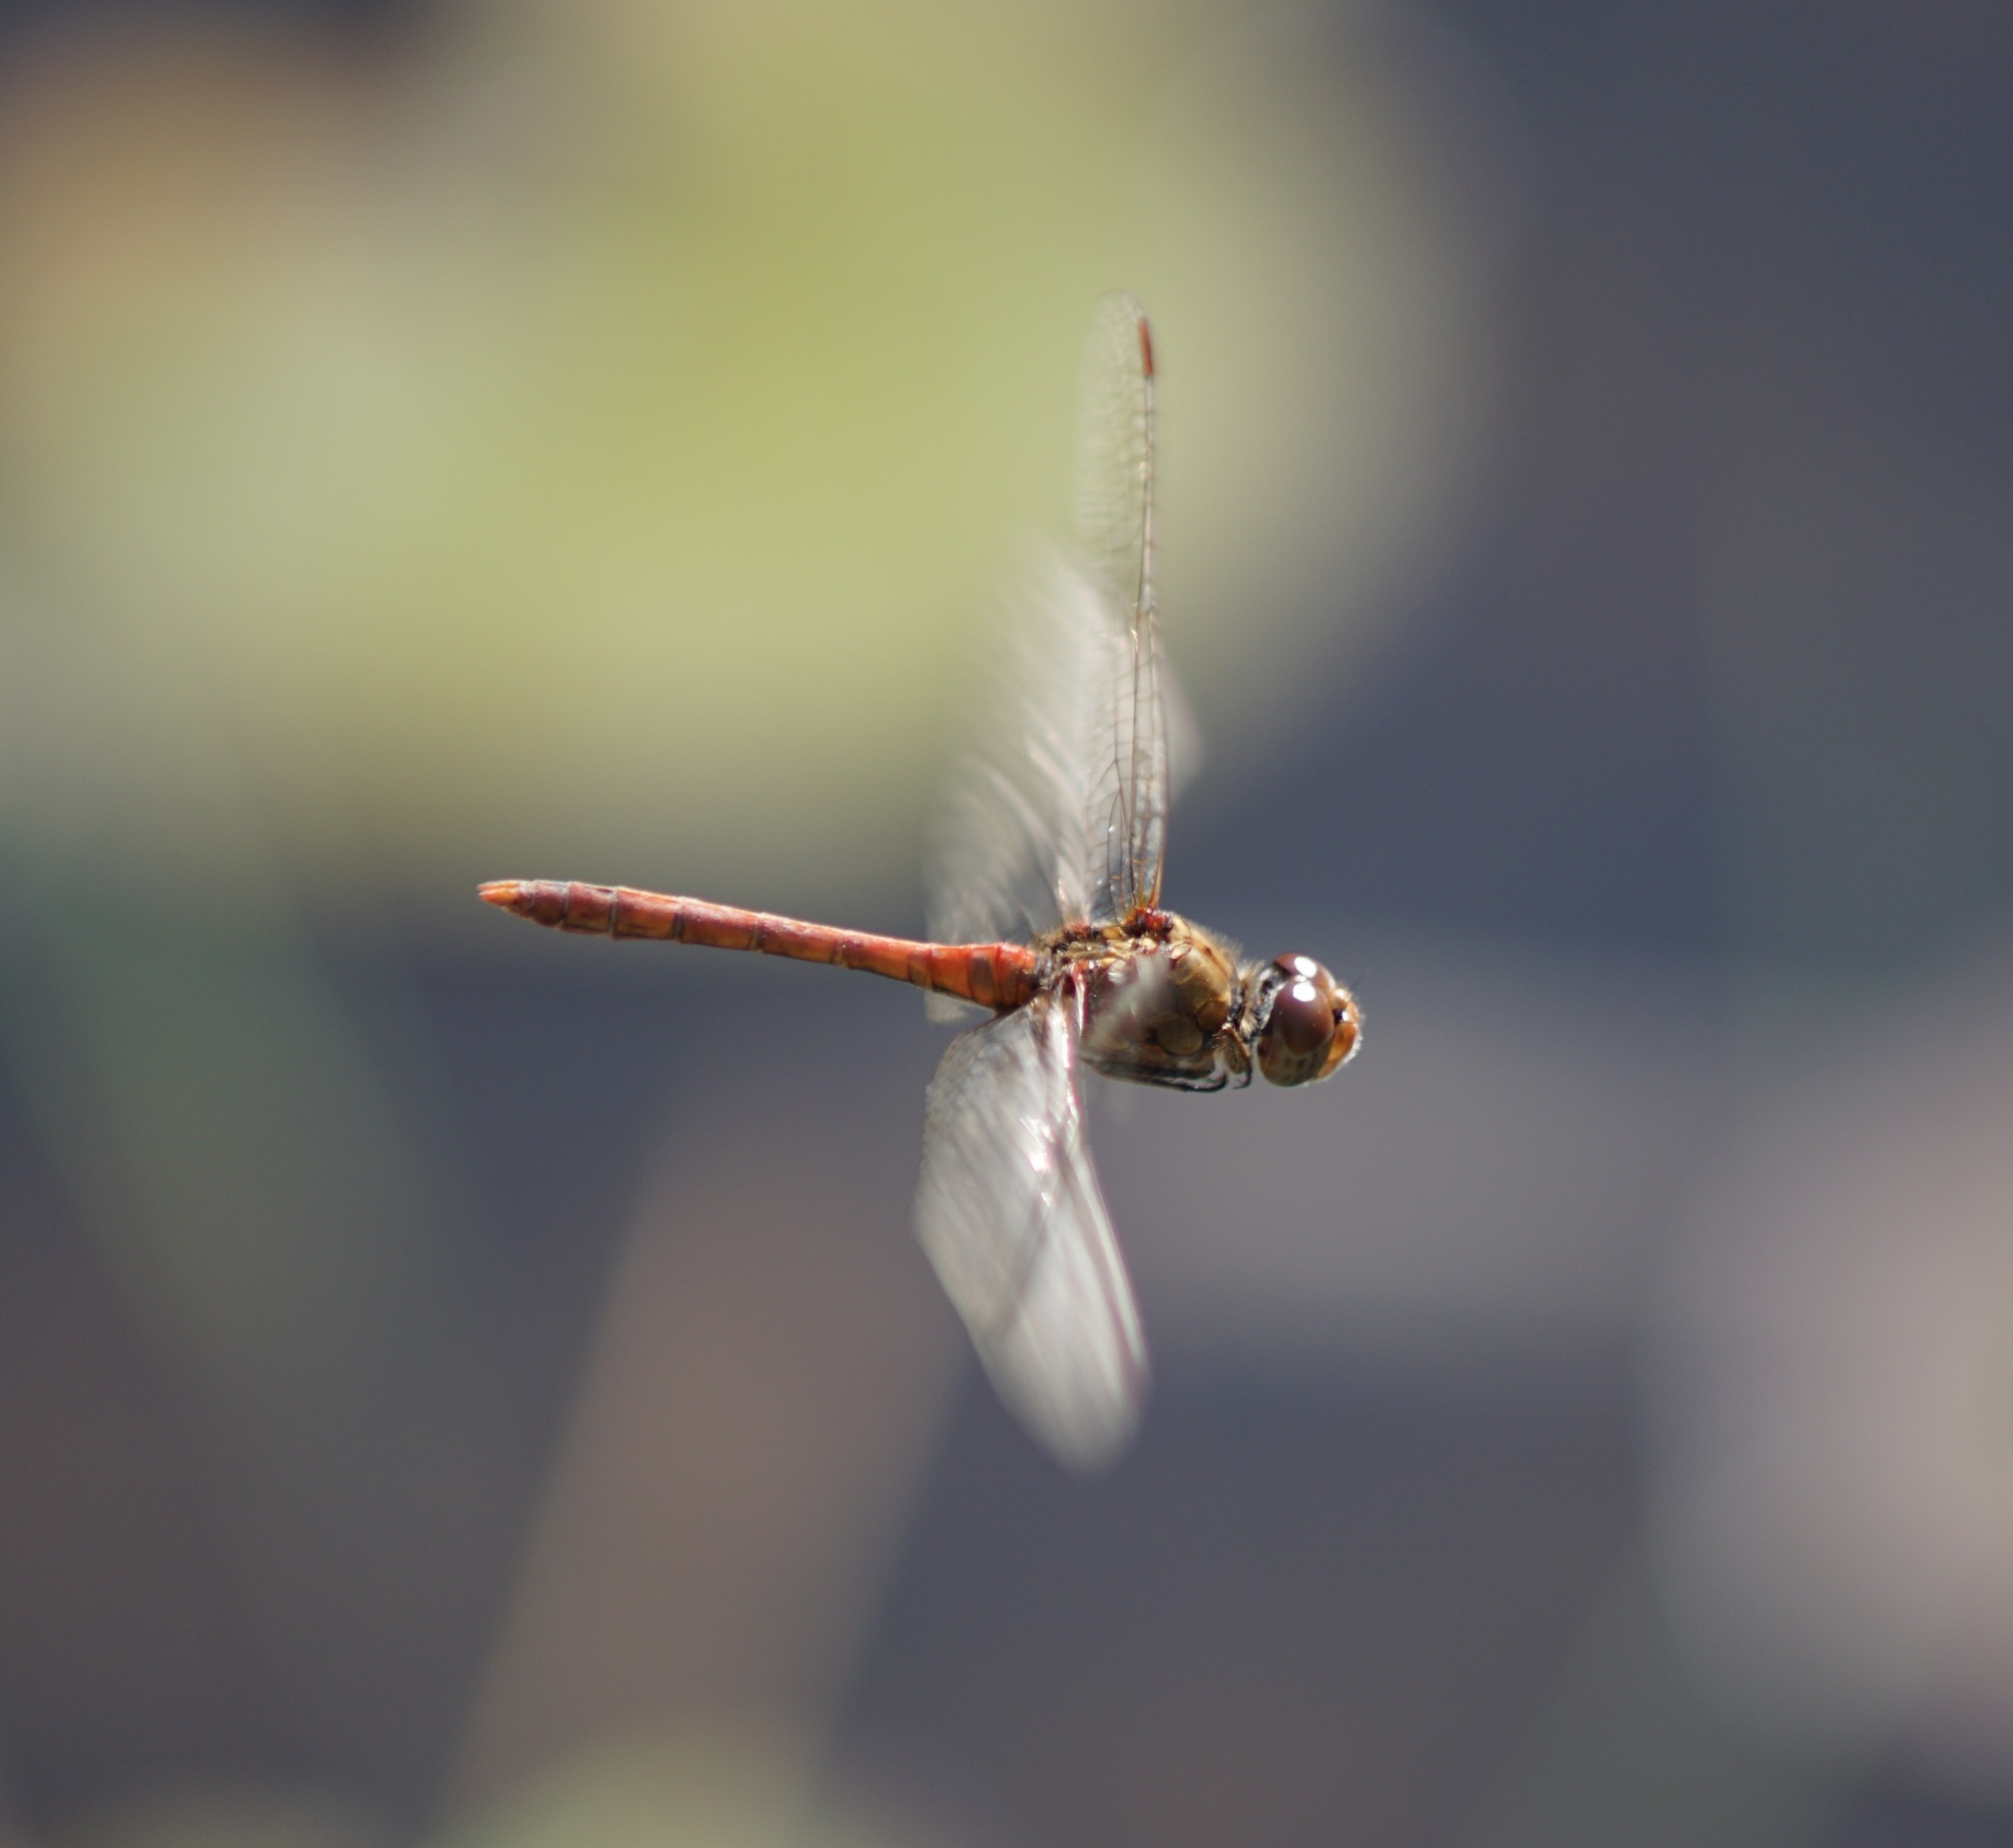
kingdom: Animalia
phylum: Arthropoda
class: Insecta
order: Odonata
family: Libellulidae
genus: Sympetrum
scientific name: Sympetrum striolatum
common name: Common darter
